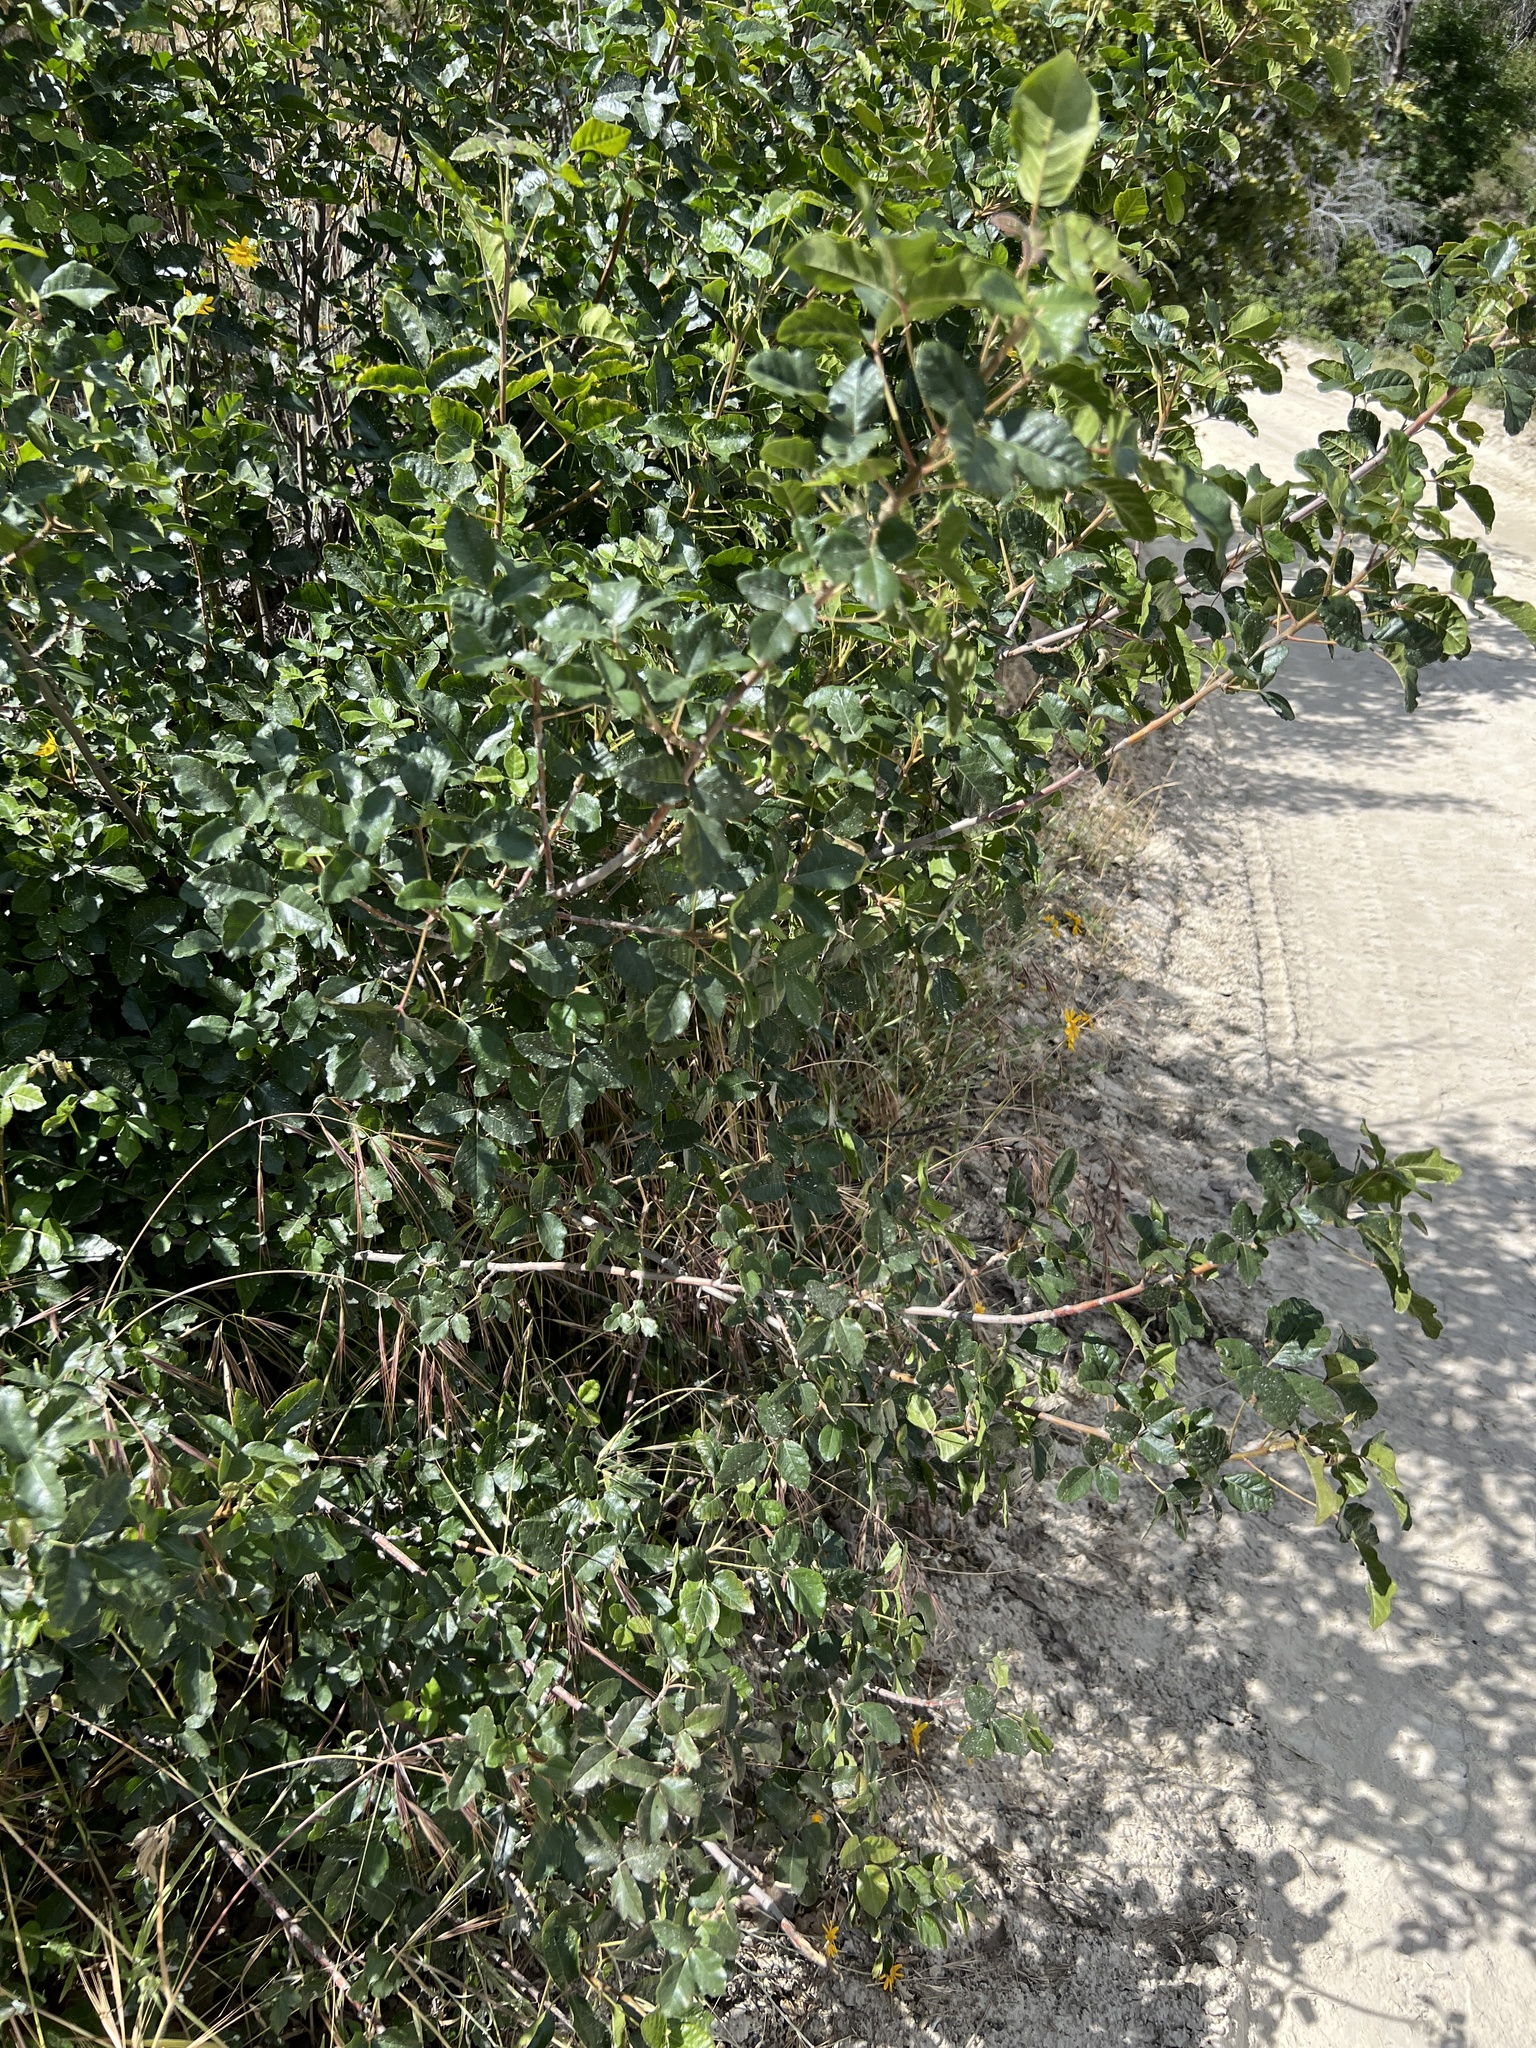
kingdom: Plantae
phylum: Tracheophyta
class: Magnoliopsida
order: Sapindales
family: Anacardiaceae
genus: Toxicodendron
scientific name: Toxicodendron diversilobum
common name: Pacific poison-oak
